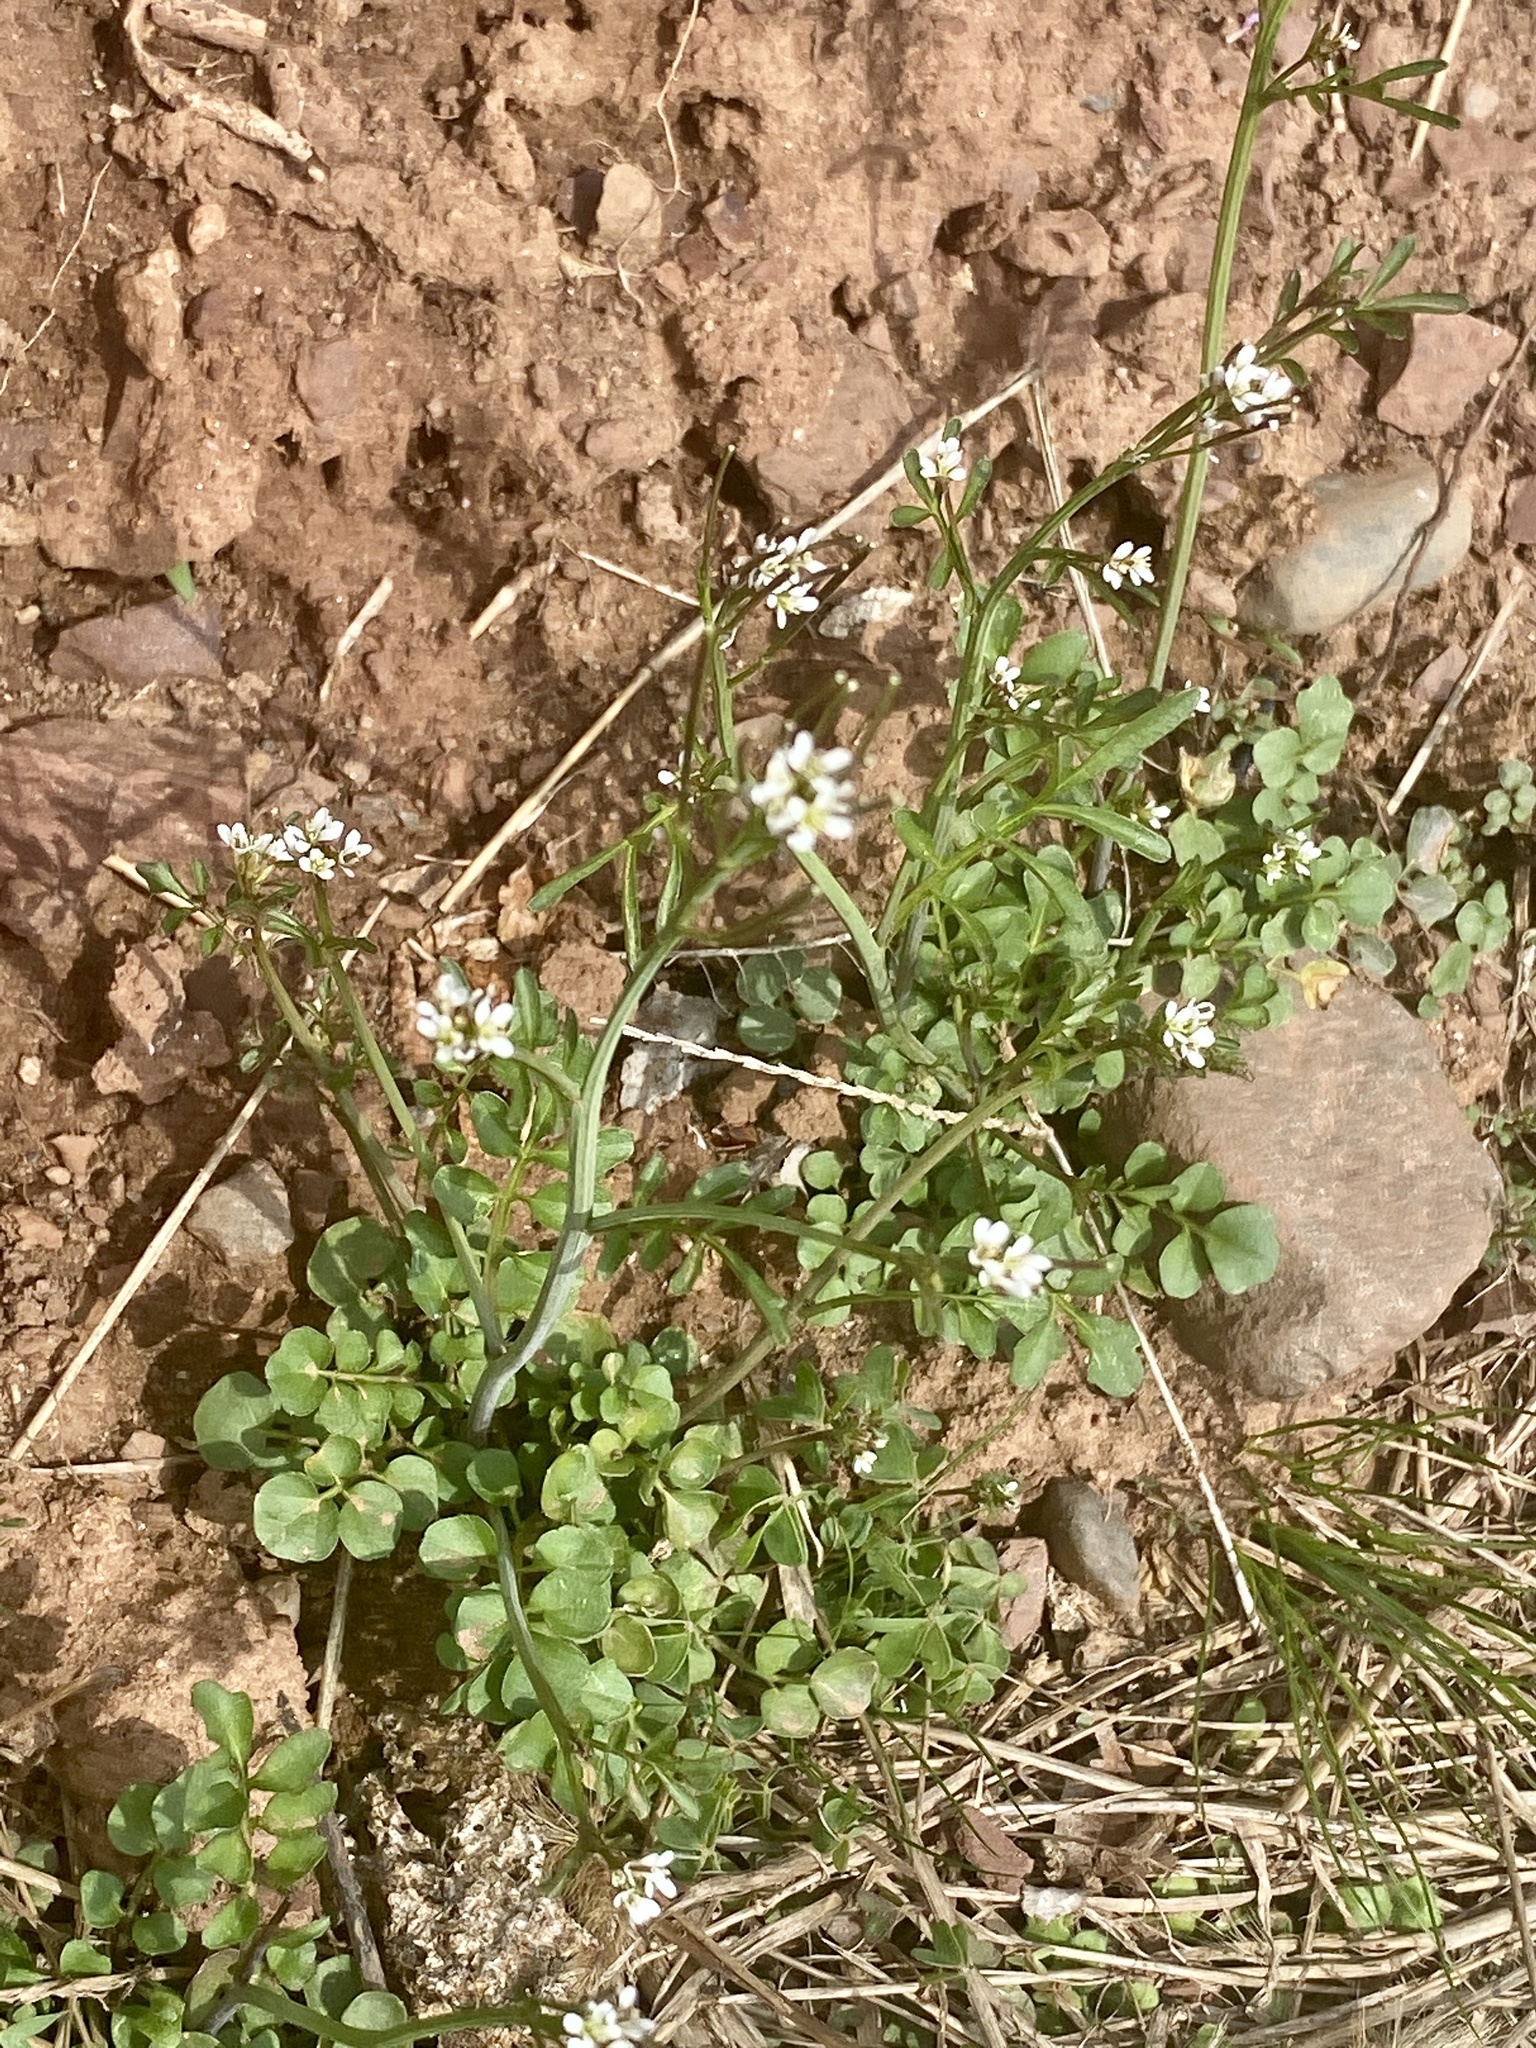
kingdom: Plantae
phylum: Tracheophyta
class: Magnoliopsida
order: Brassicales
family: Brassicaceae
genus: Cardamine
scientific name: Cardamine hirsuta
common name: Hairy bittercress
